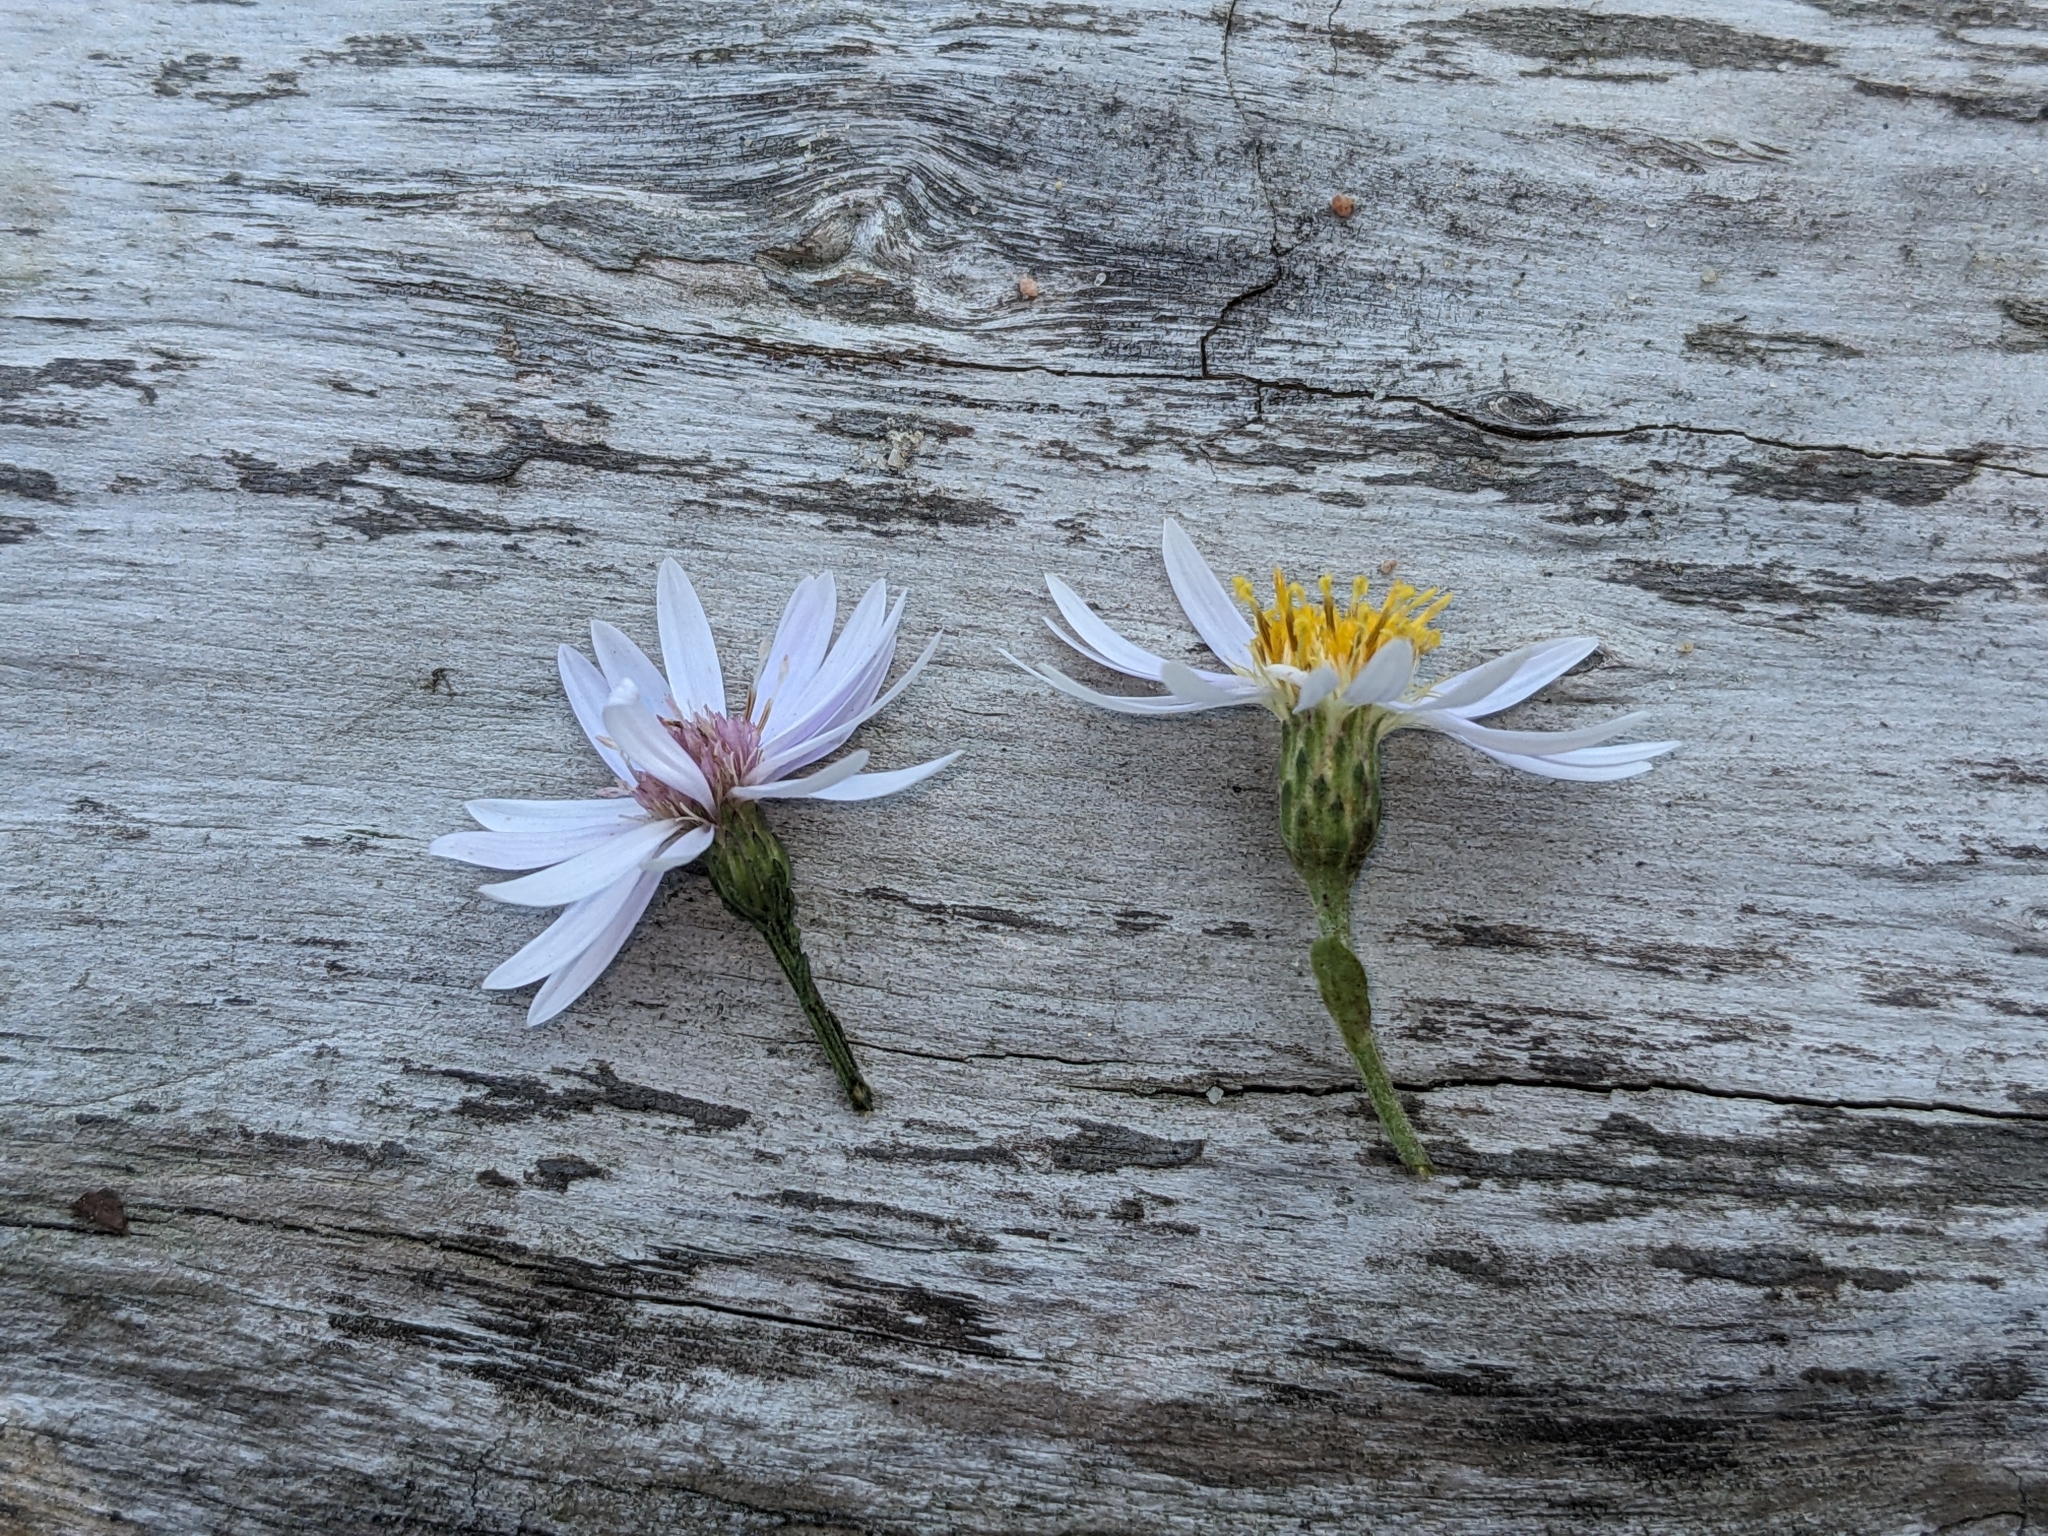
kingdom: Plantae
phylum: Tracheophyta
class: Magnoliopsida
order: Asterales
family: Asteraceae
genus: Symphyotrichum
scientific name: Symphyotrichum cordifolium
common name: Beeweed
